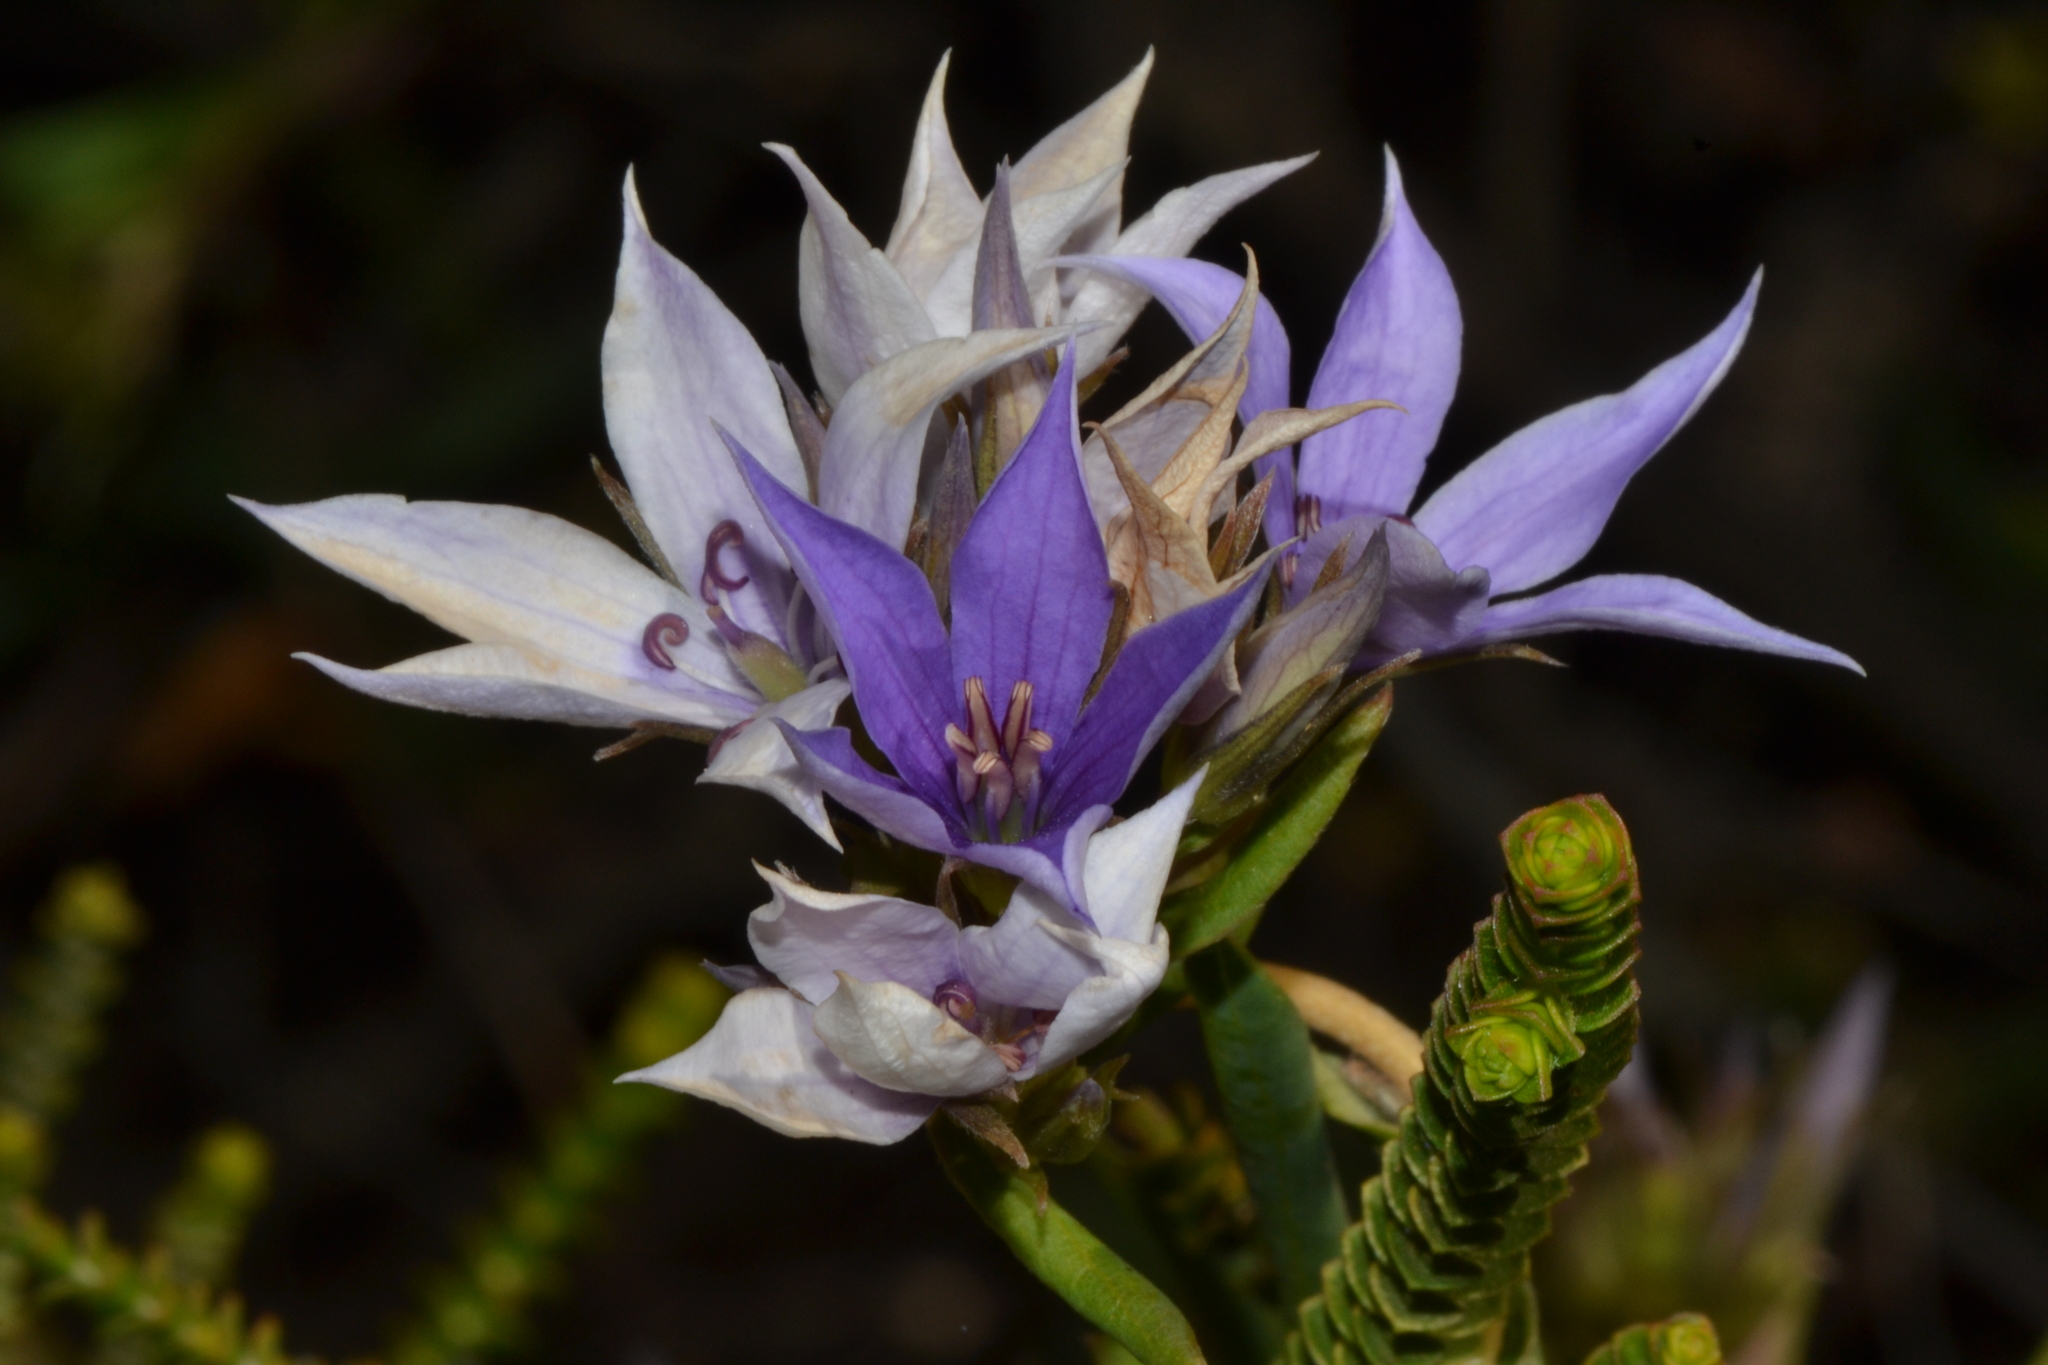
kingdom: Plantae
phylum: Tracheophyta
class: Magnoliopsida
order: Apiales
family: Pittosporaceae
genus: Billardiera
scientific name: Billardiera fraseri
